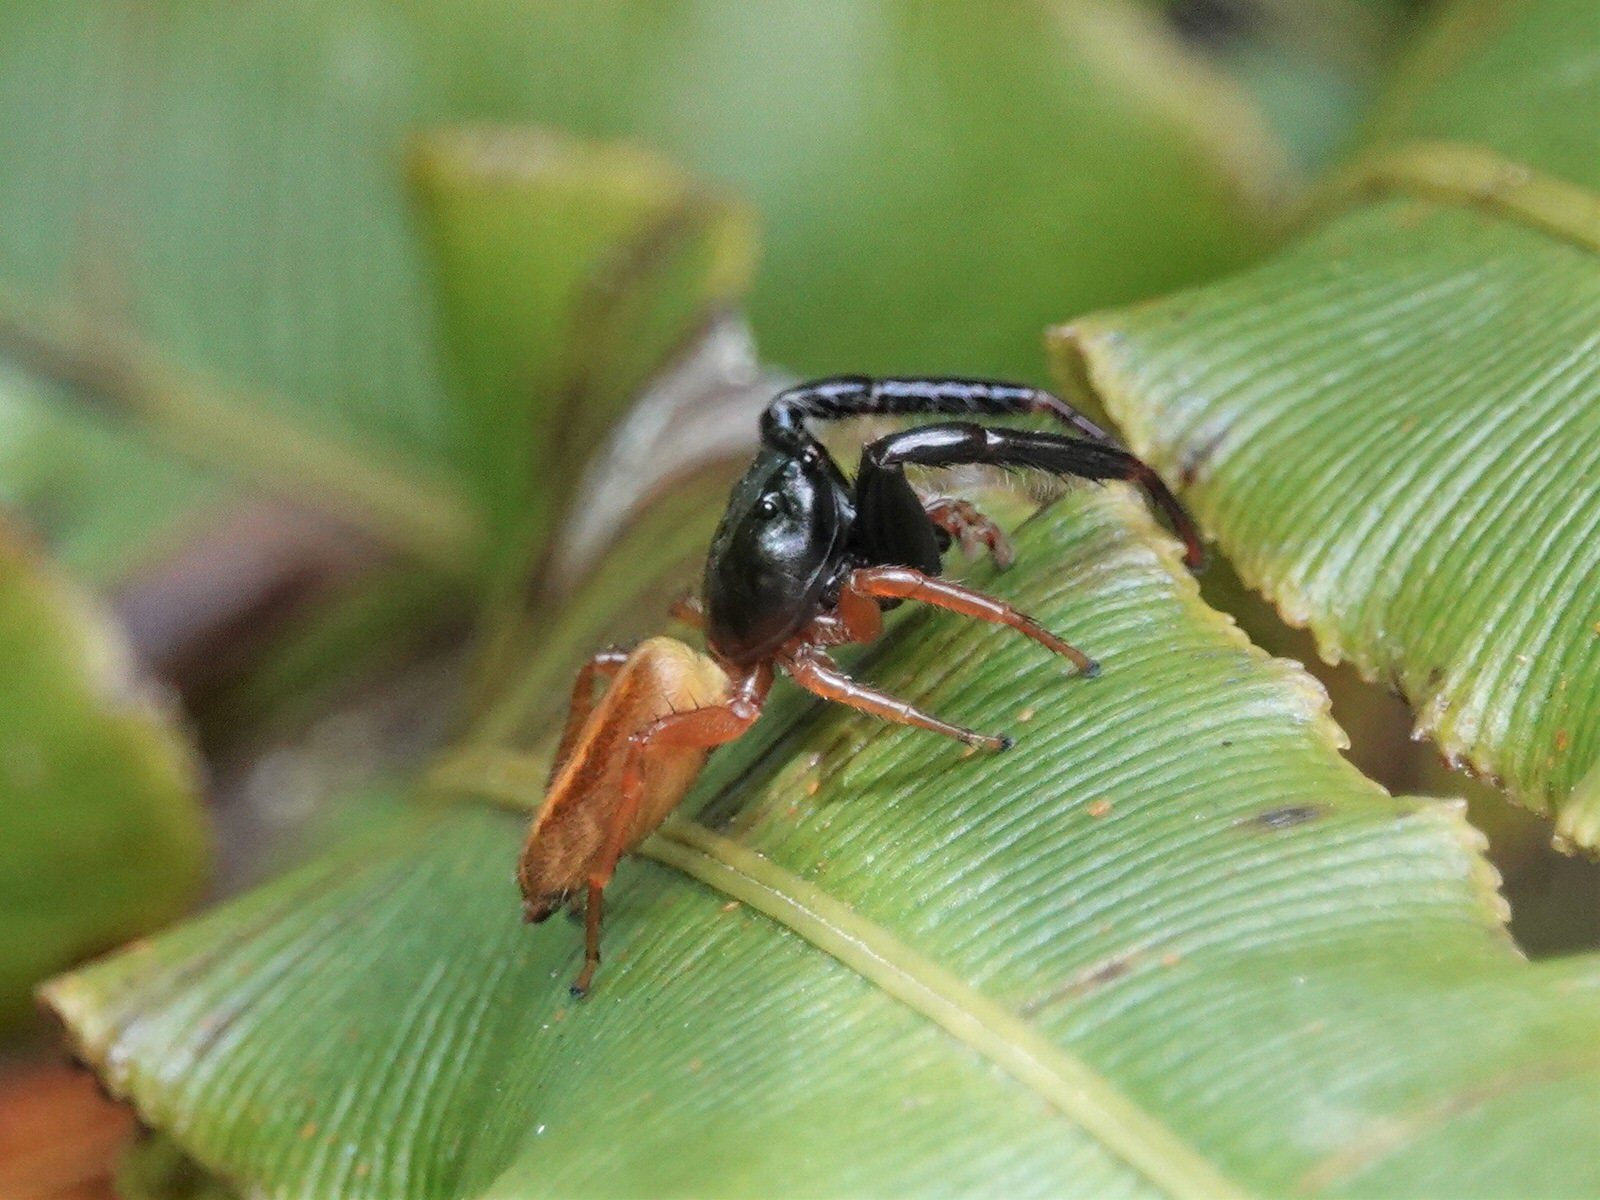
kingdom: Animalia
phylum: Arthropoda
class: Arachnida
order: Araneae
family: Salticidae
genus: Trite
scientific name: Trite planiceps
